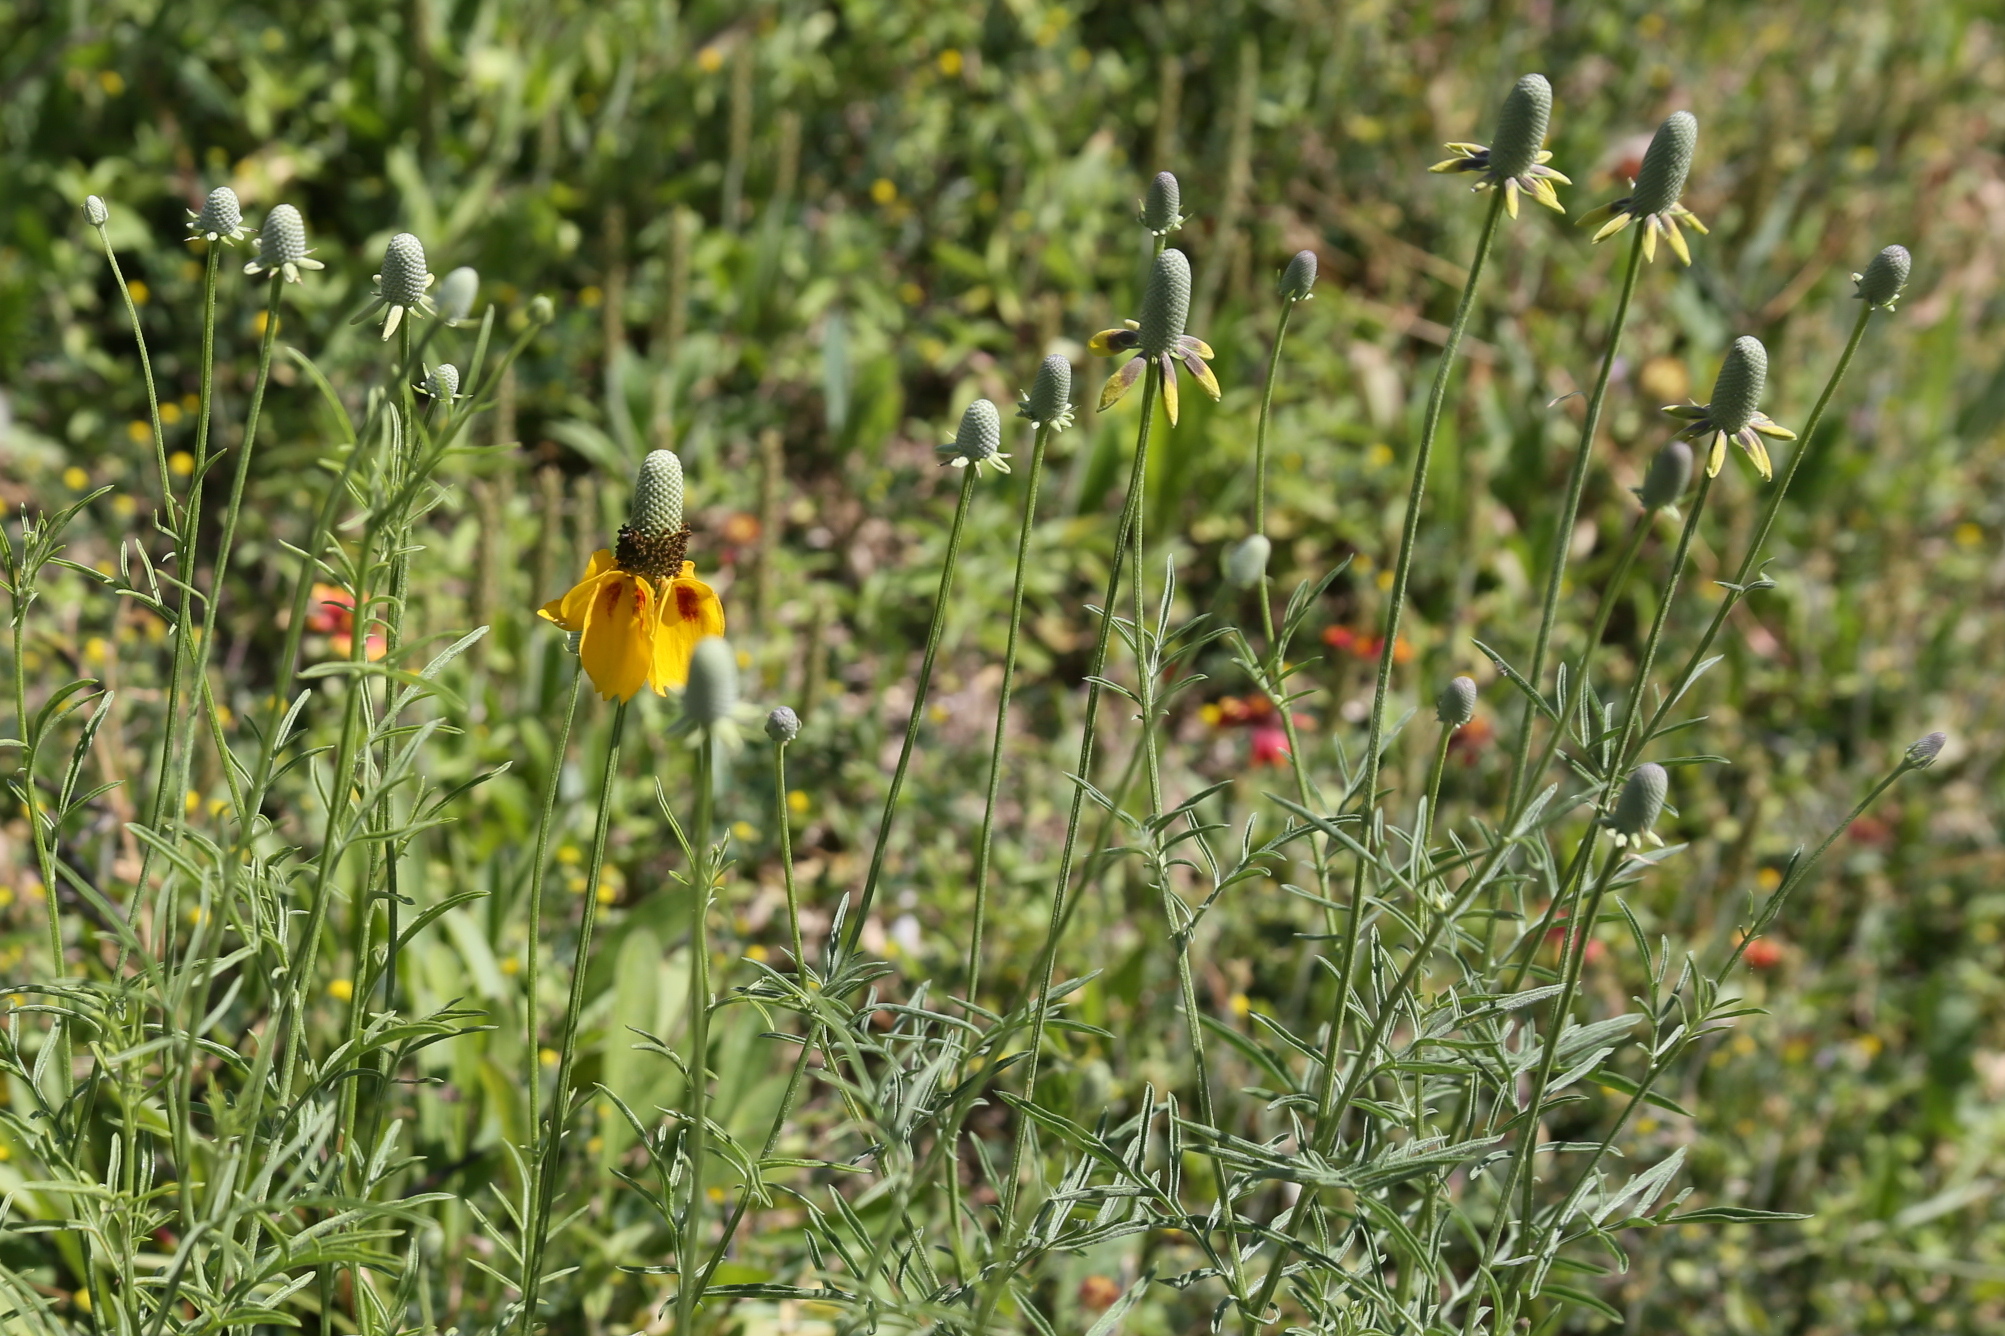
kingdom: Plantae
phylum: Tracheophyta
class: Magnoliopsida
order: Asterales
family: Asteraceae
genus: Ratibida
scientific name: Ratibida columnifera
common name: Prairie coneflower
